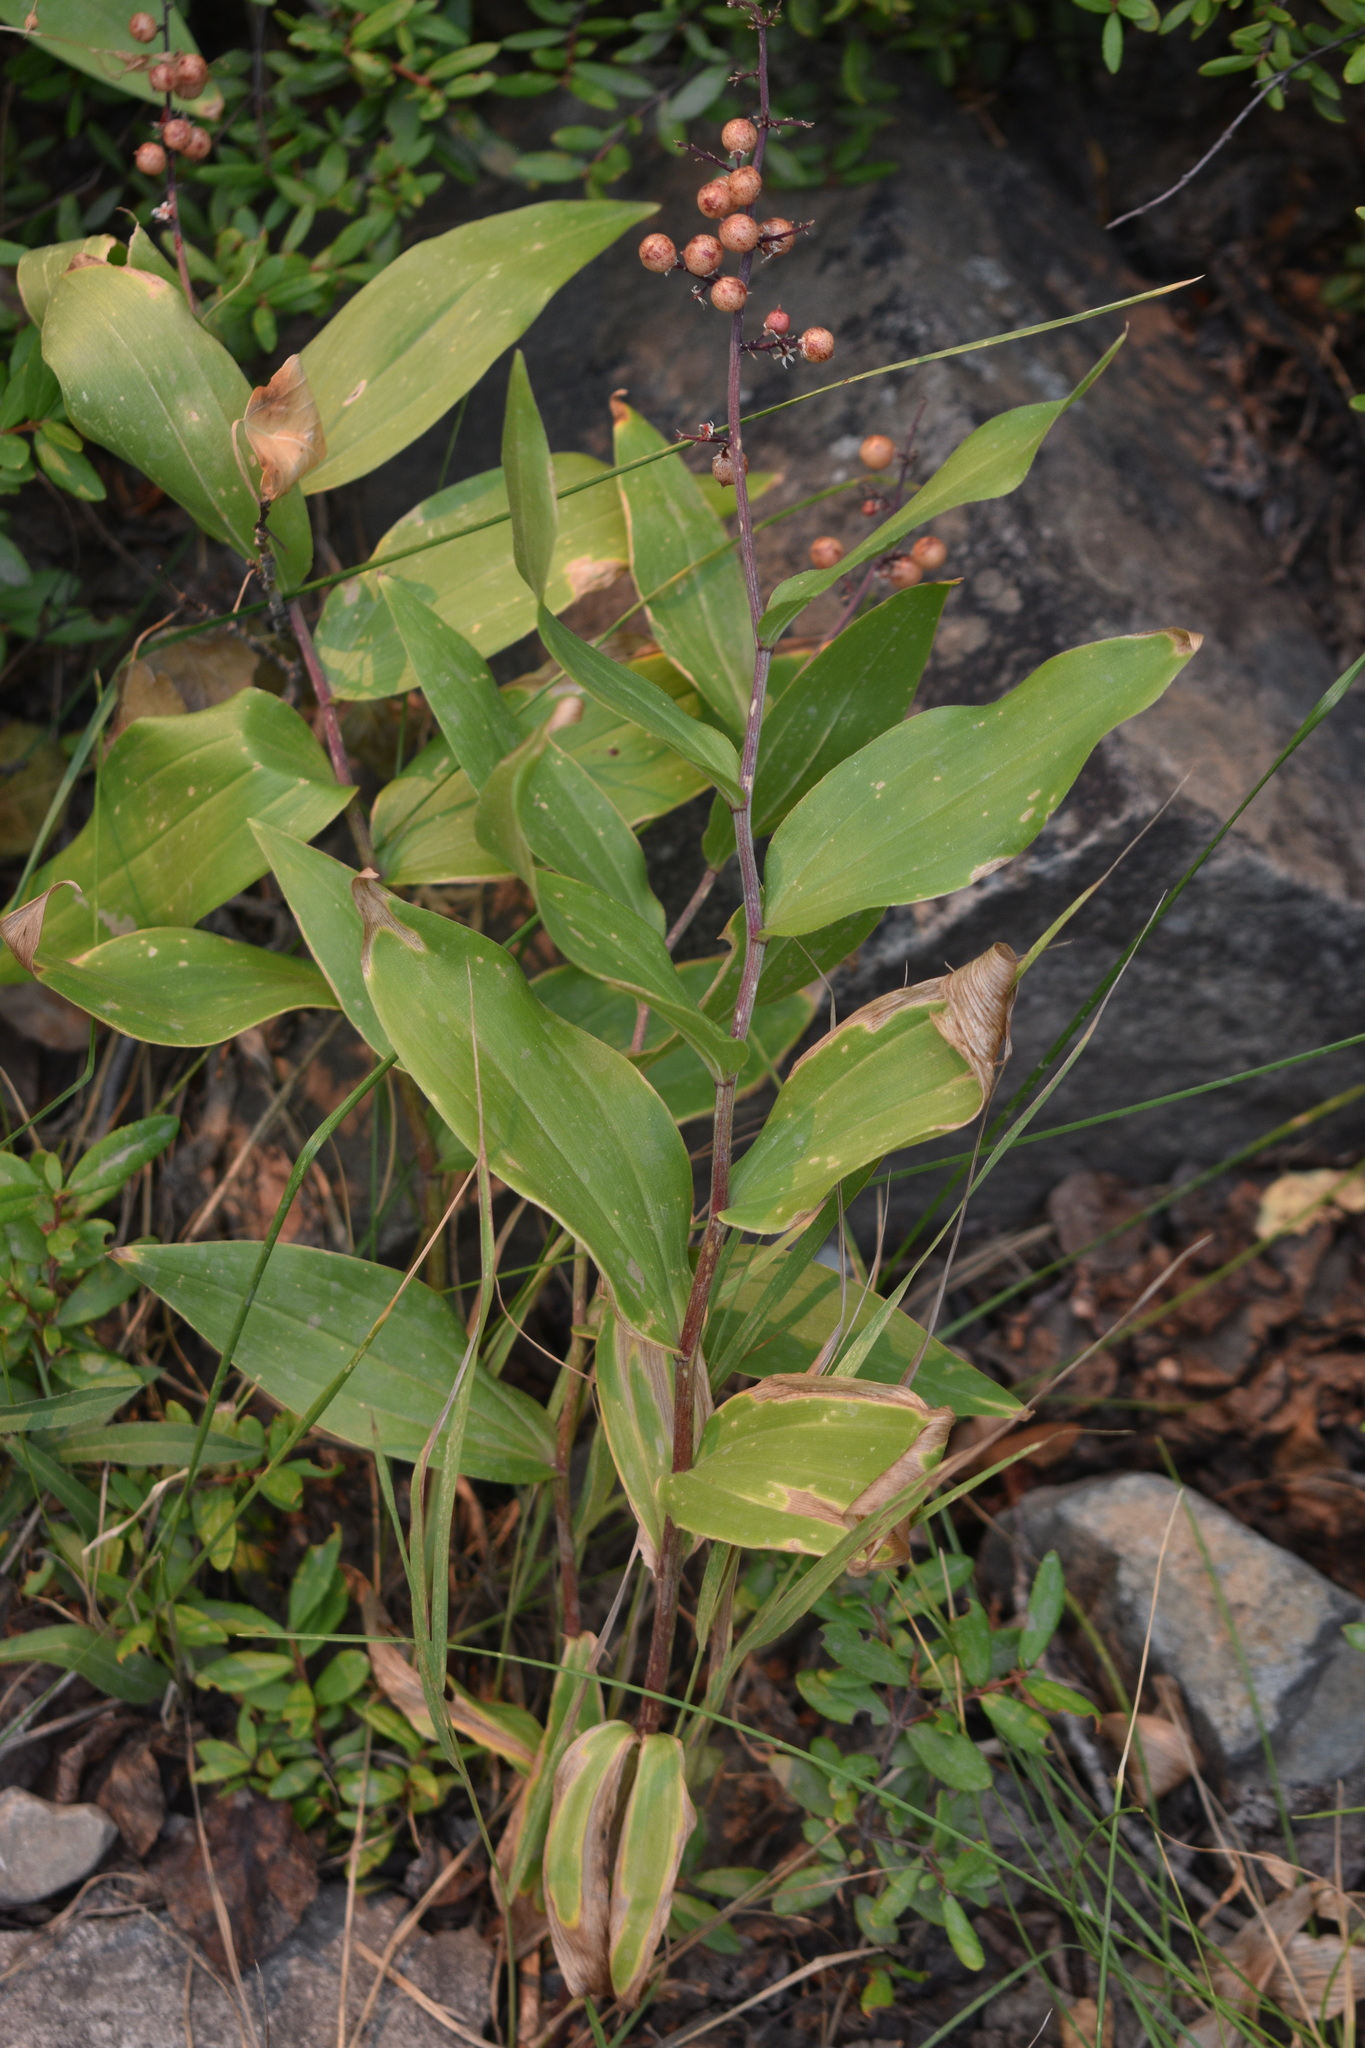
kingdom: Plantae
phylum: Tracheophyta
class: Liliopsida
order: Asparagales
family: Asparagaceae
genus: Maianthemum
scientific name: Maianthemum racemosum
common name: False spikenard
